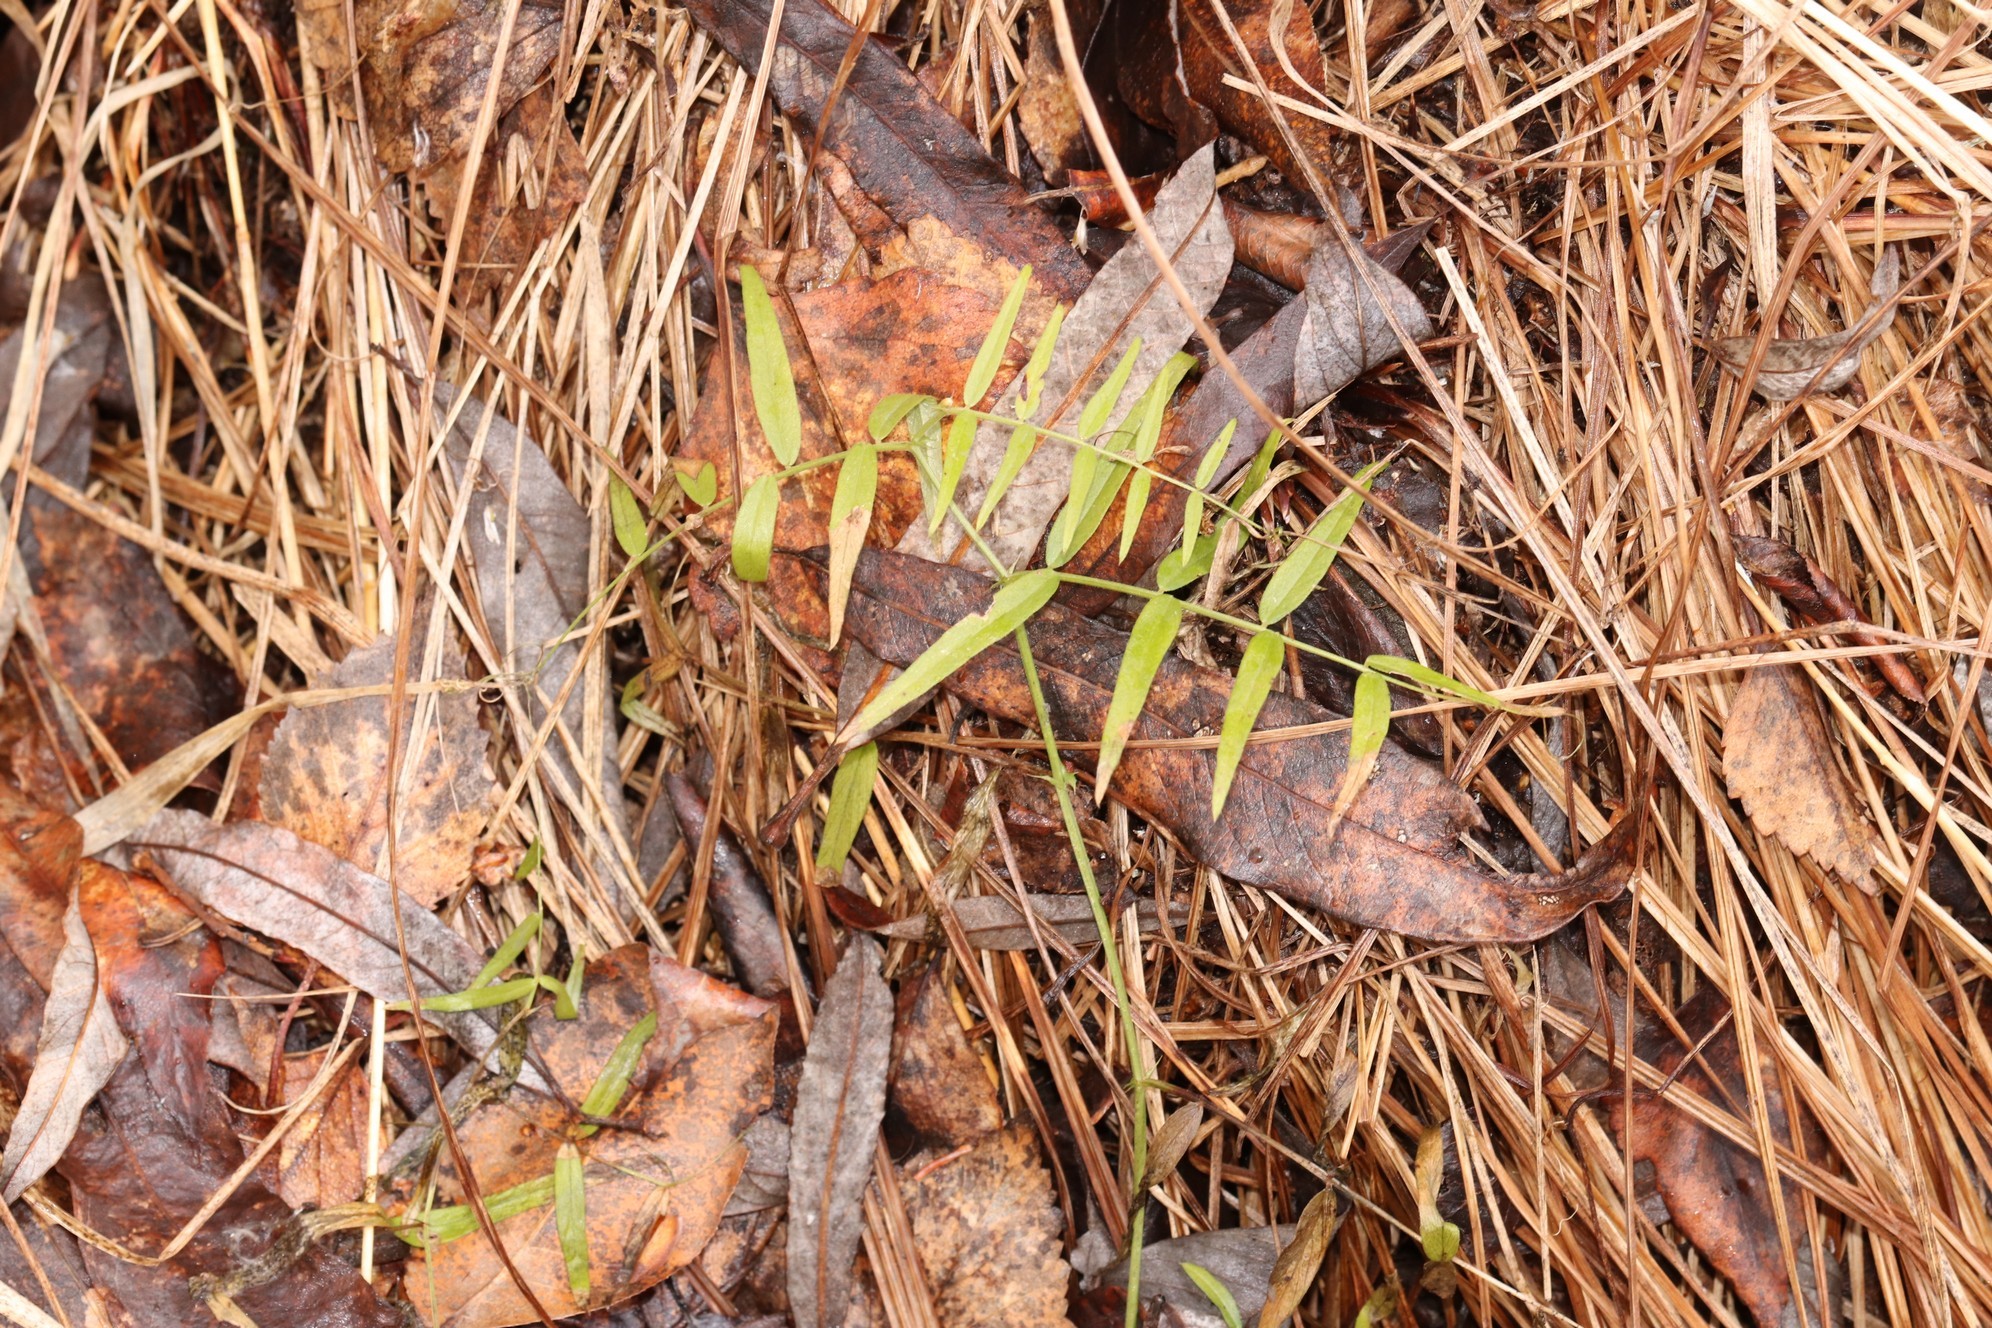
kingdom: Plantae
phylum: Tracheophyta
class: Magnoliopsida
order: Fabales
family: Fabaceae
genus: Vicia
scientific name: Vicia sepium
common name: Bush vetch
